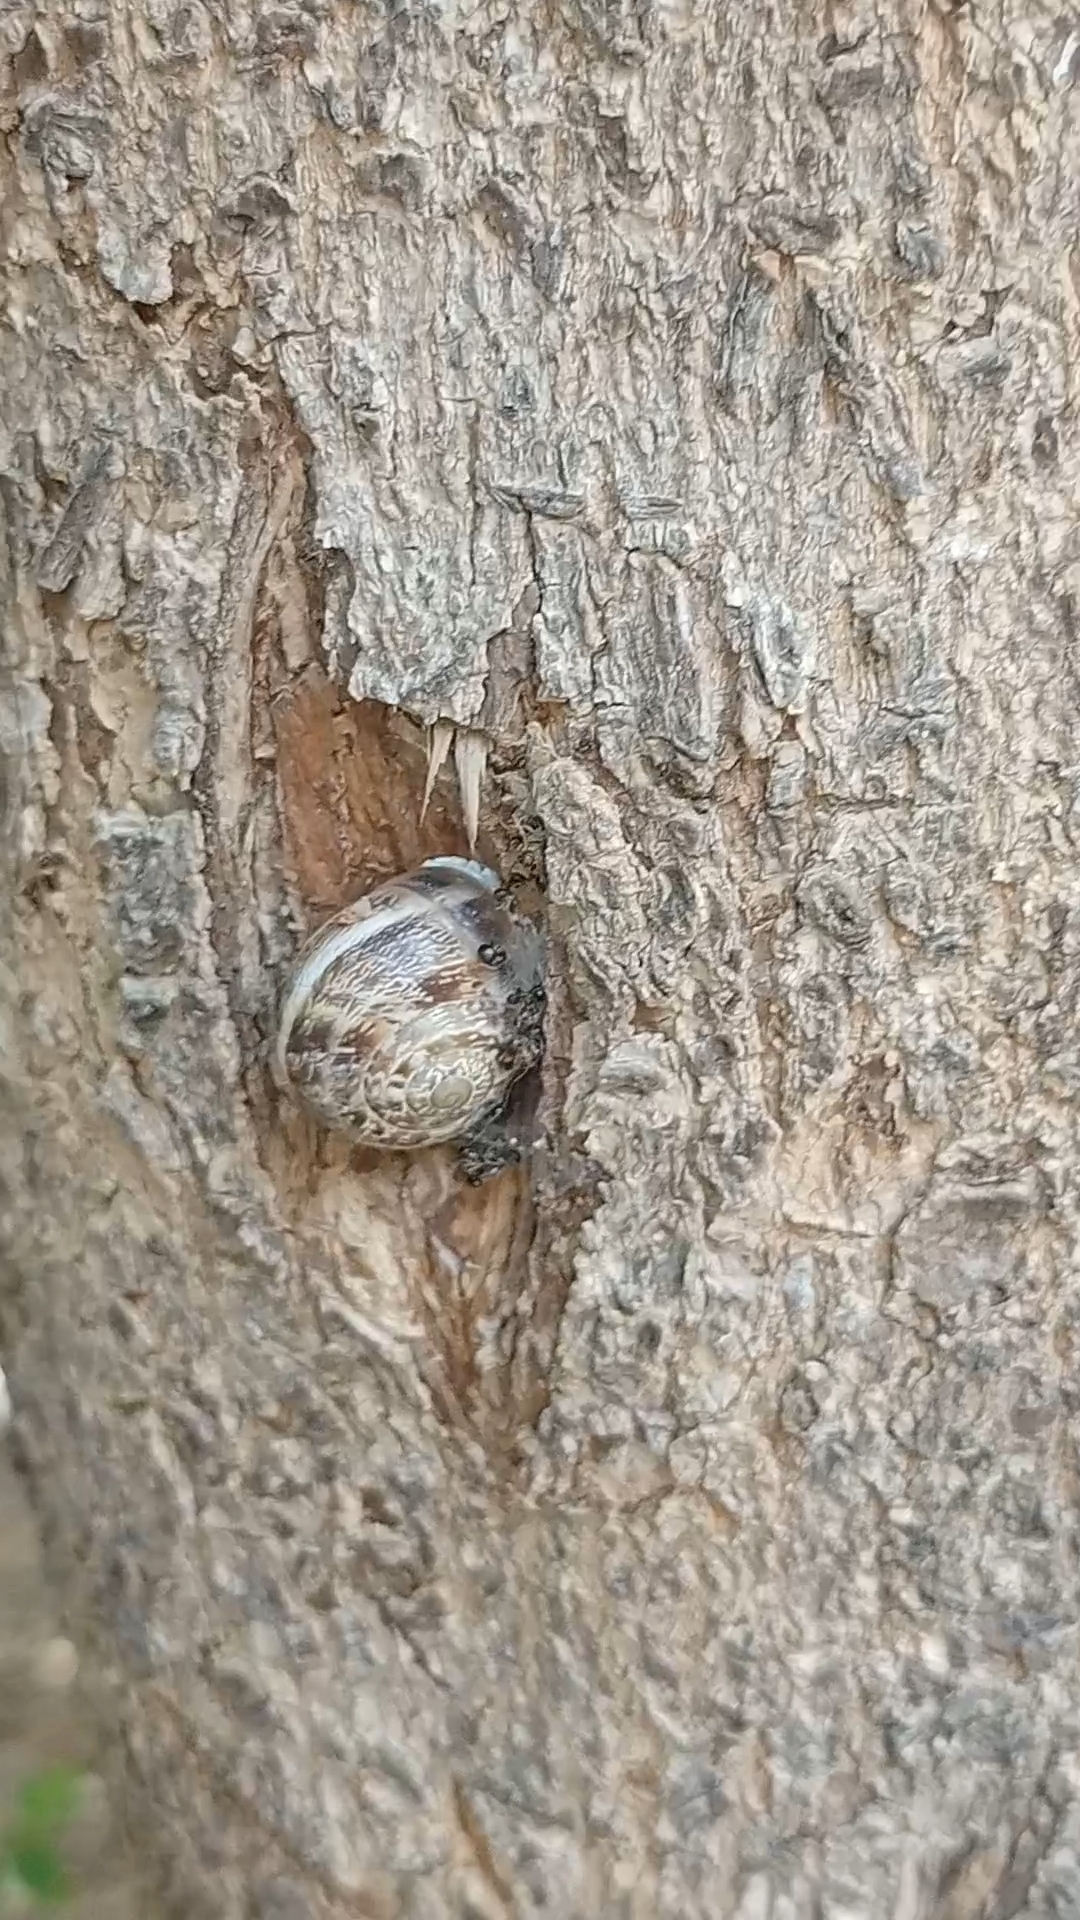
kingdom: Animalia
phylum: Mollusca
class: Gastropoda
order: Stylommatophora
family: Helicidae
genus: Eobania
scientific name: Eobania vermiculata
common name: Chocolateband snail
